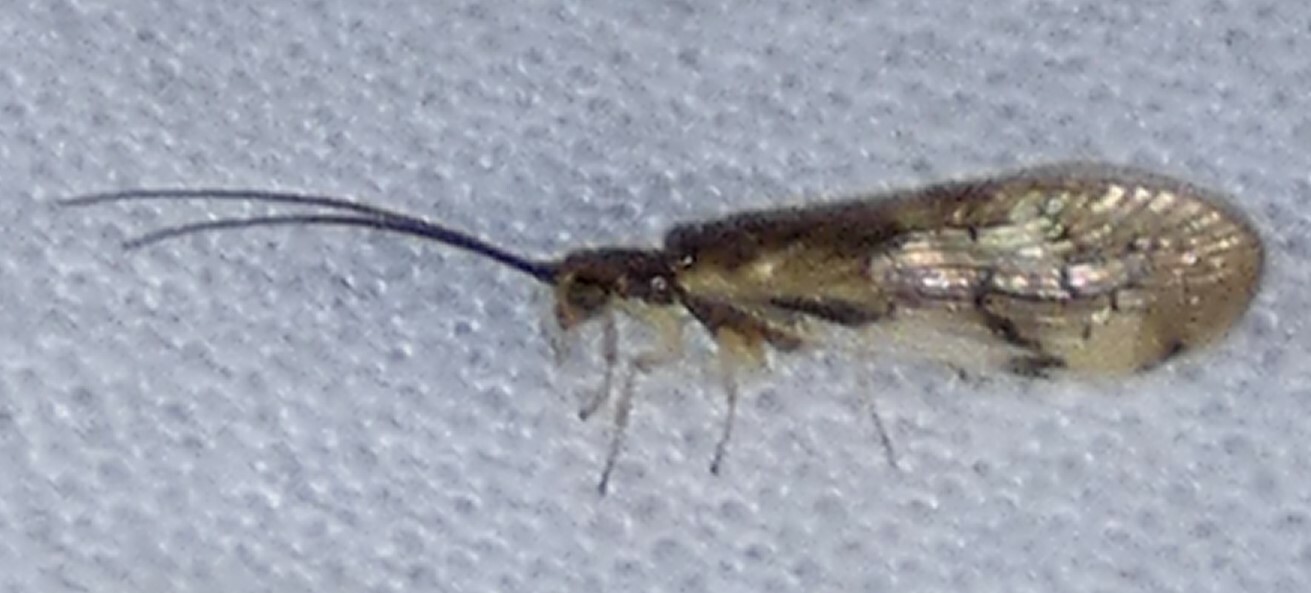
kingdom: Animalia
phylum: Arthropoda
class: Insecta
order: Neuroptera
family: Sisyridae
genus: Climacia
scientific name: Climacia areolaris
